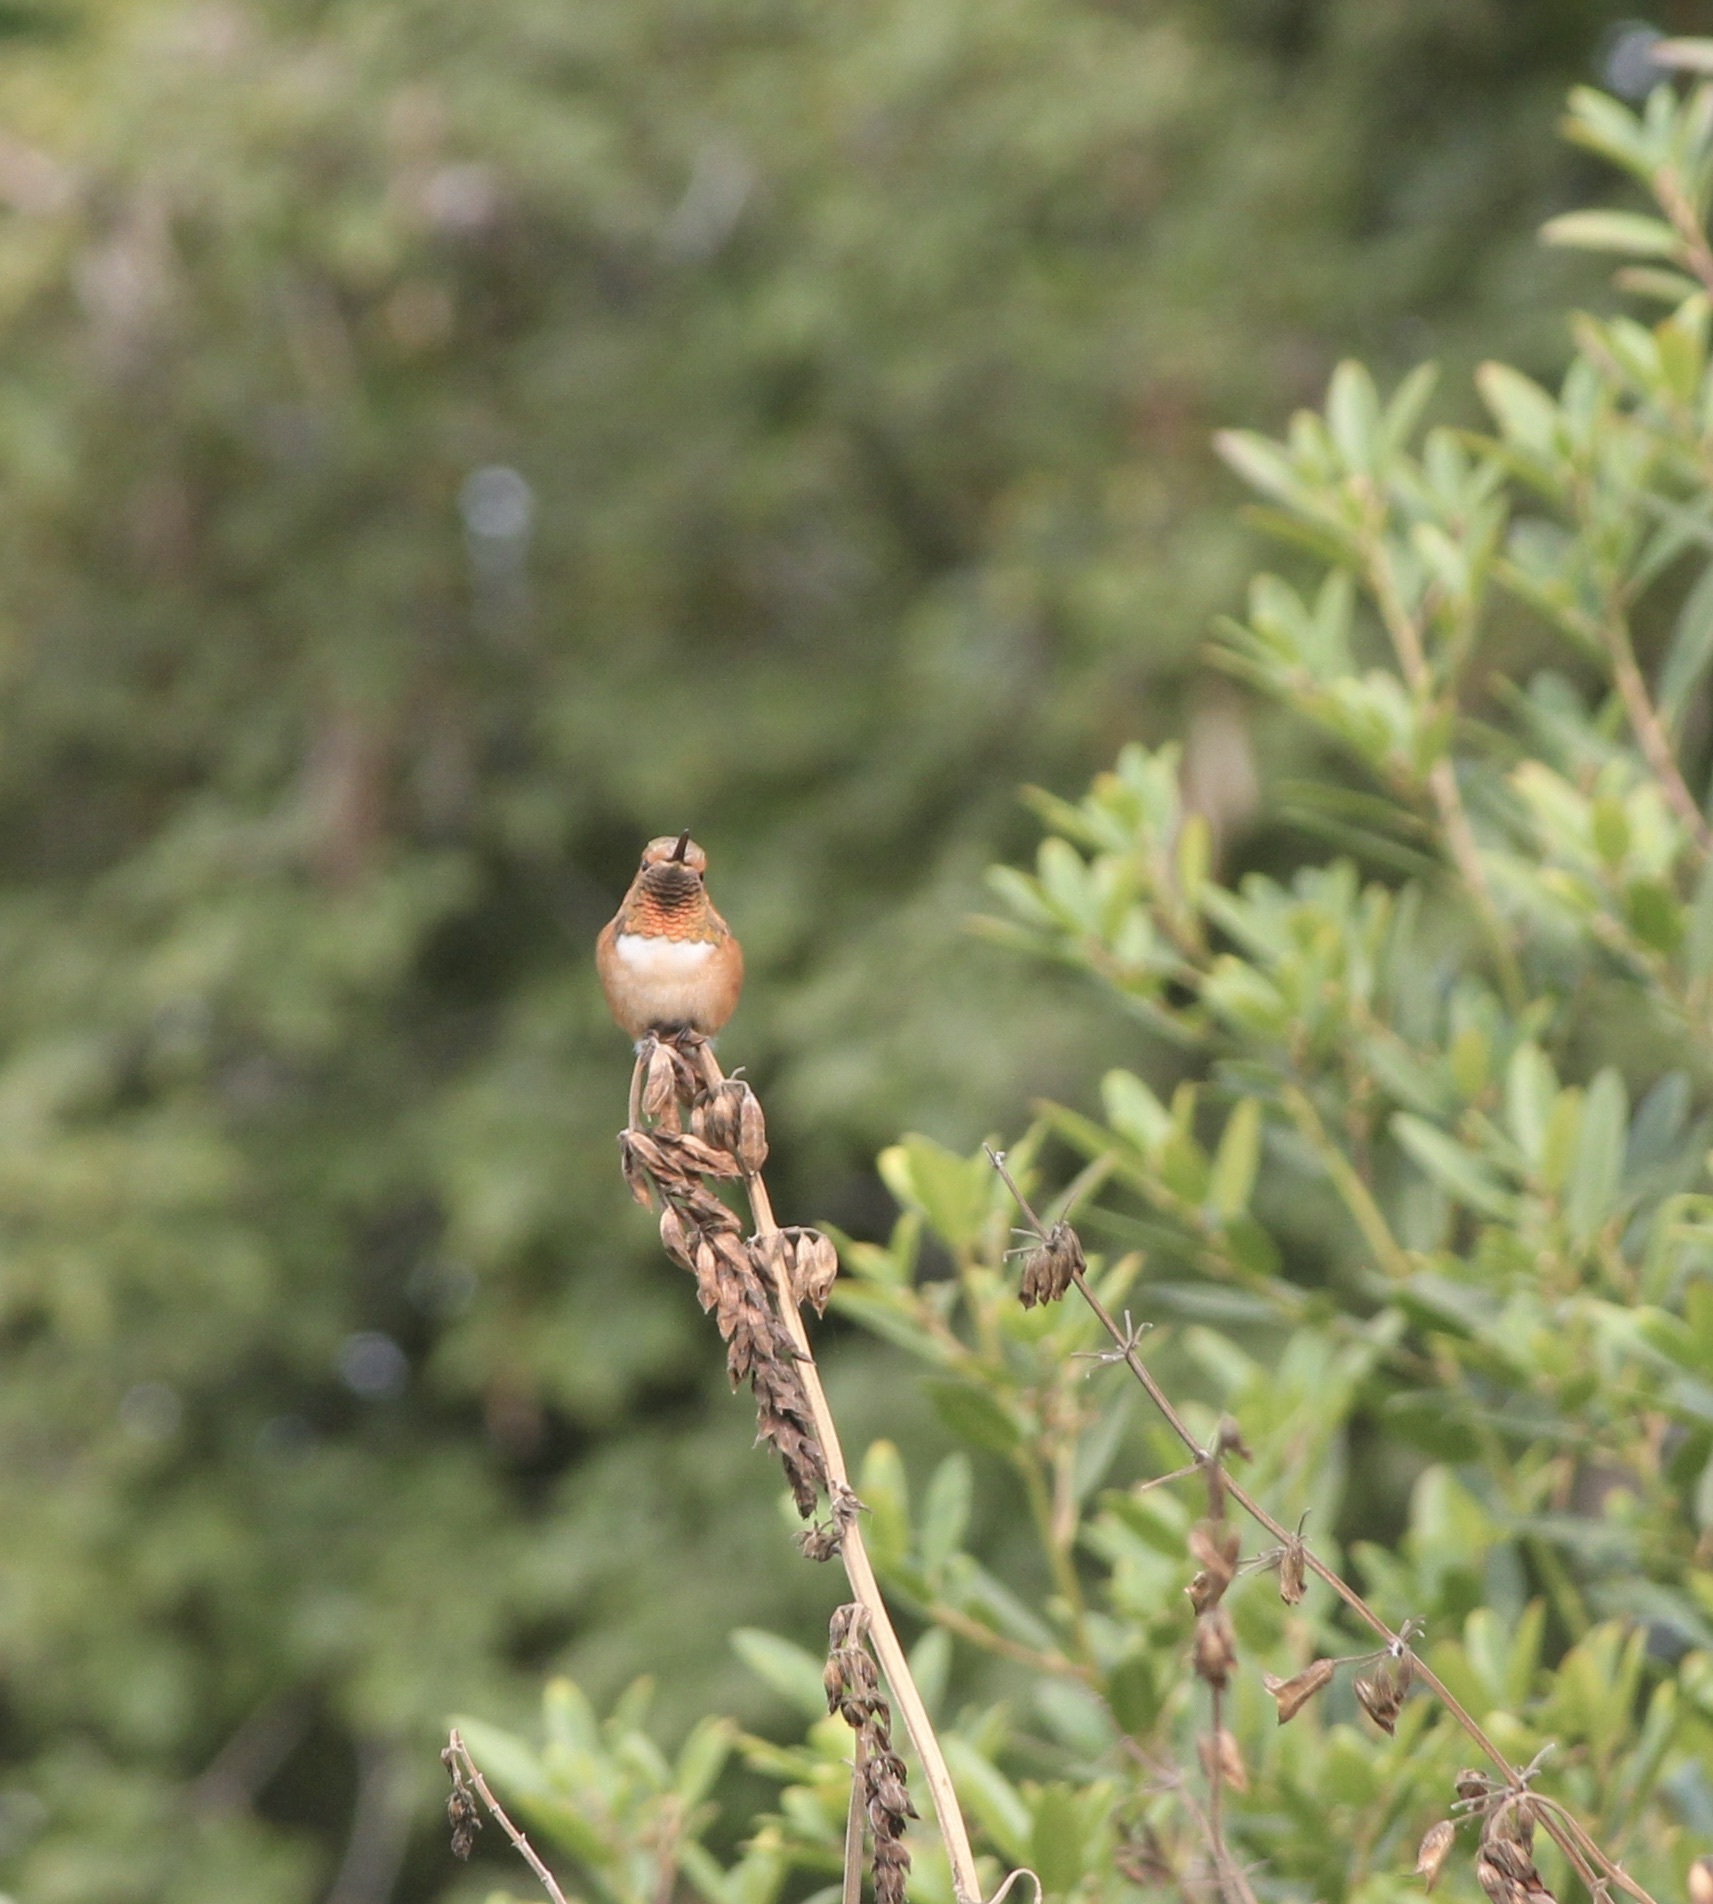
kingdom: Animalia
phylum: Chordata
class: Aves
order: Apodiformes
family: Trochilidae
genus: Selasphorus
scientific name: Selasphorus
